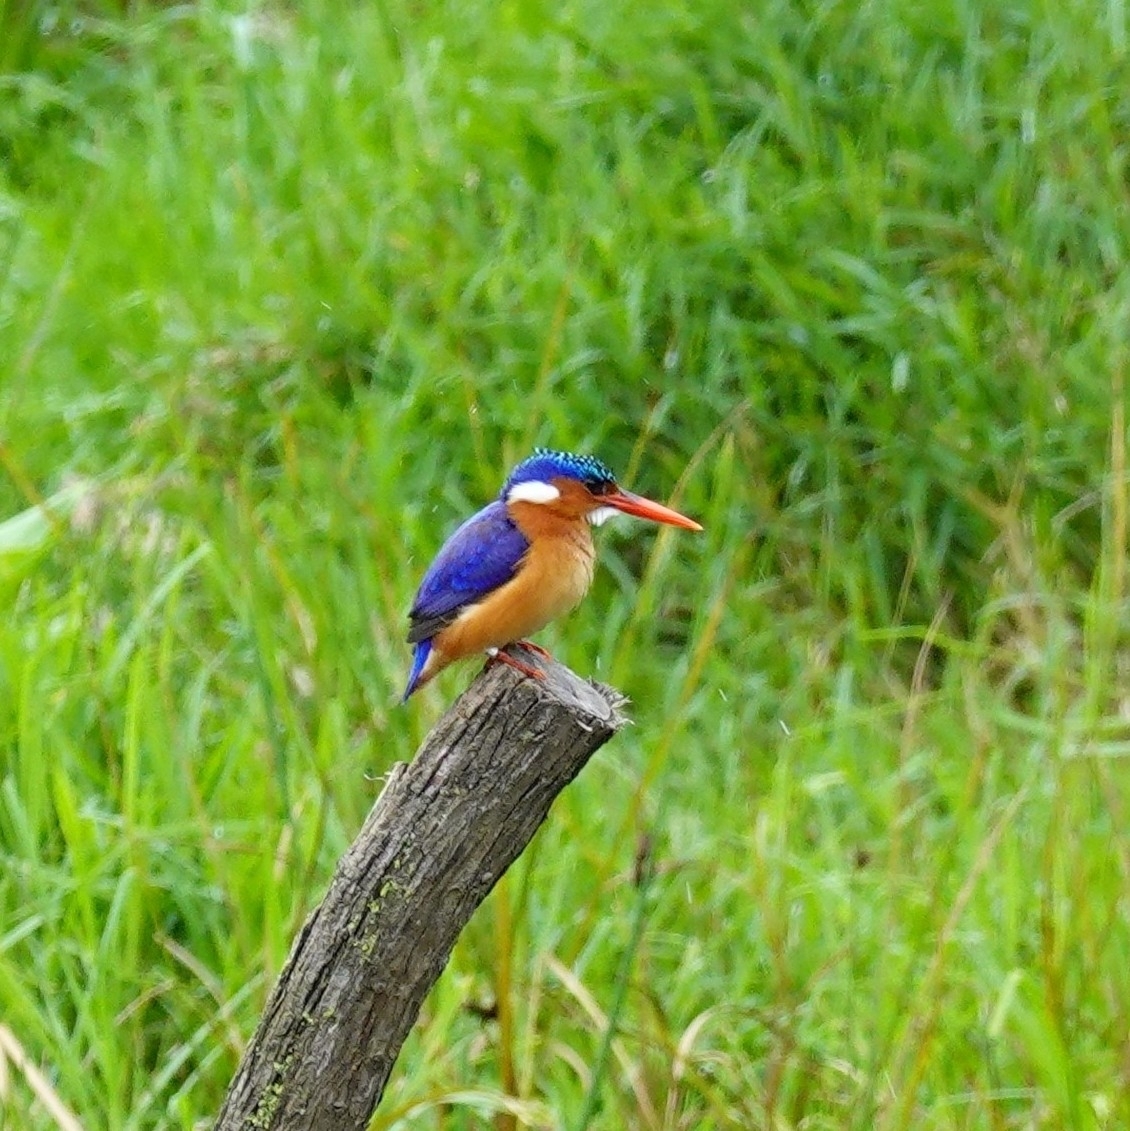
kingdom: Animalia
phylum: Chordata
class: Aves
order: Coraciiformes
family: Alcedinidae
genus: Corythornis
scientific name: Corythornis cristatus
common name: Malachite kingfisher
